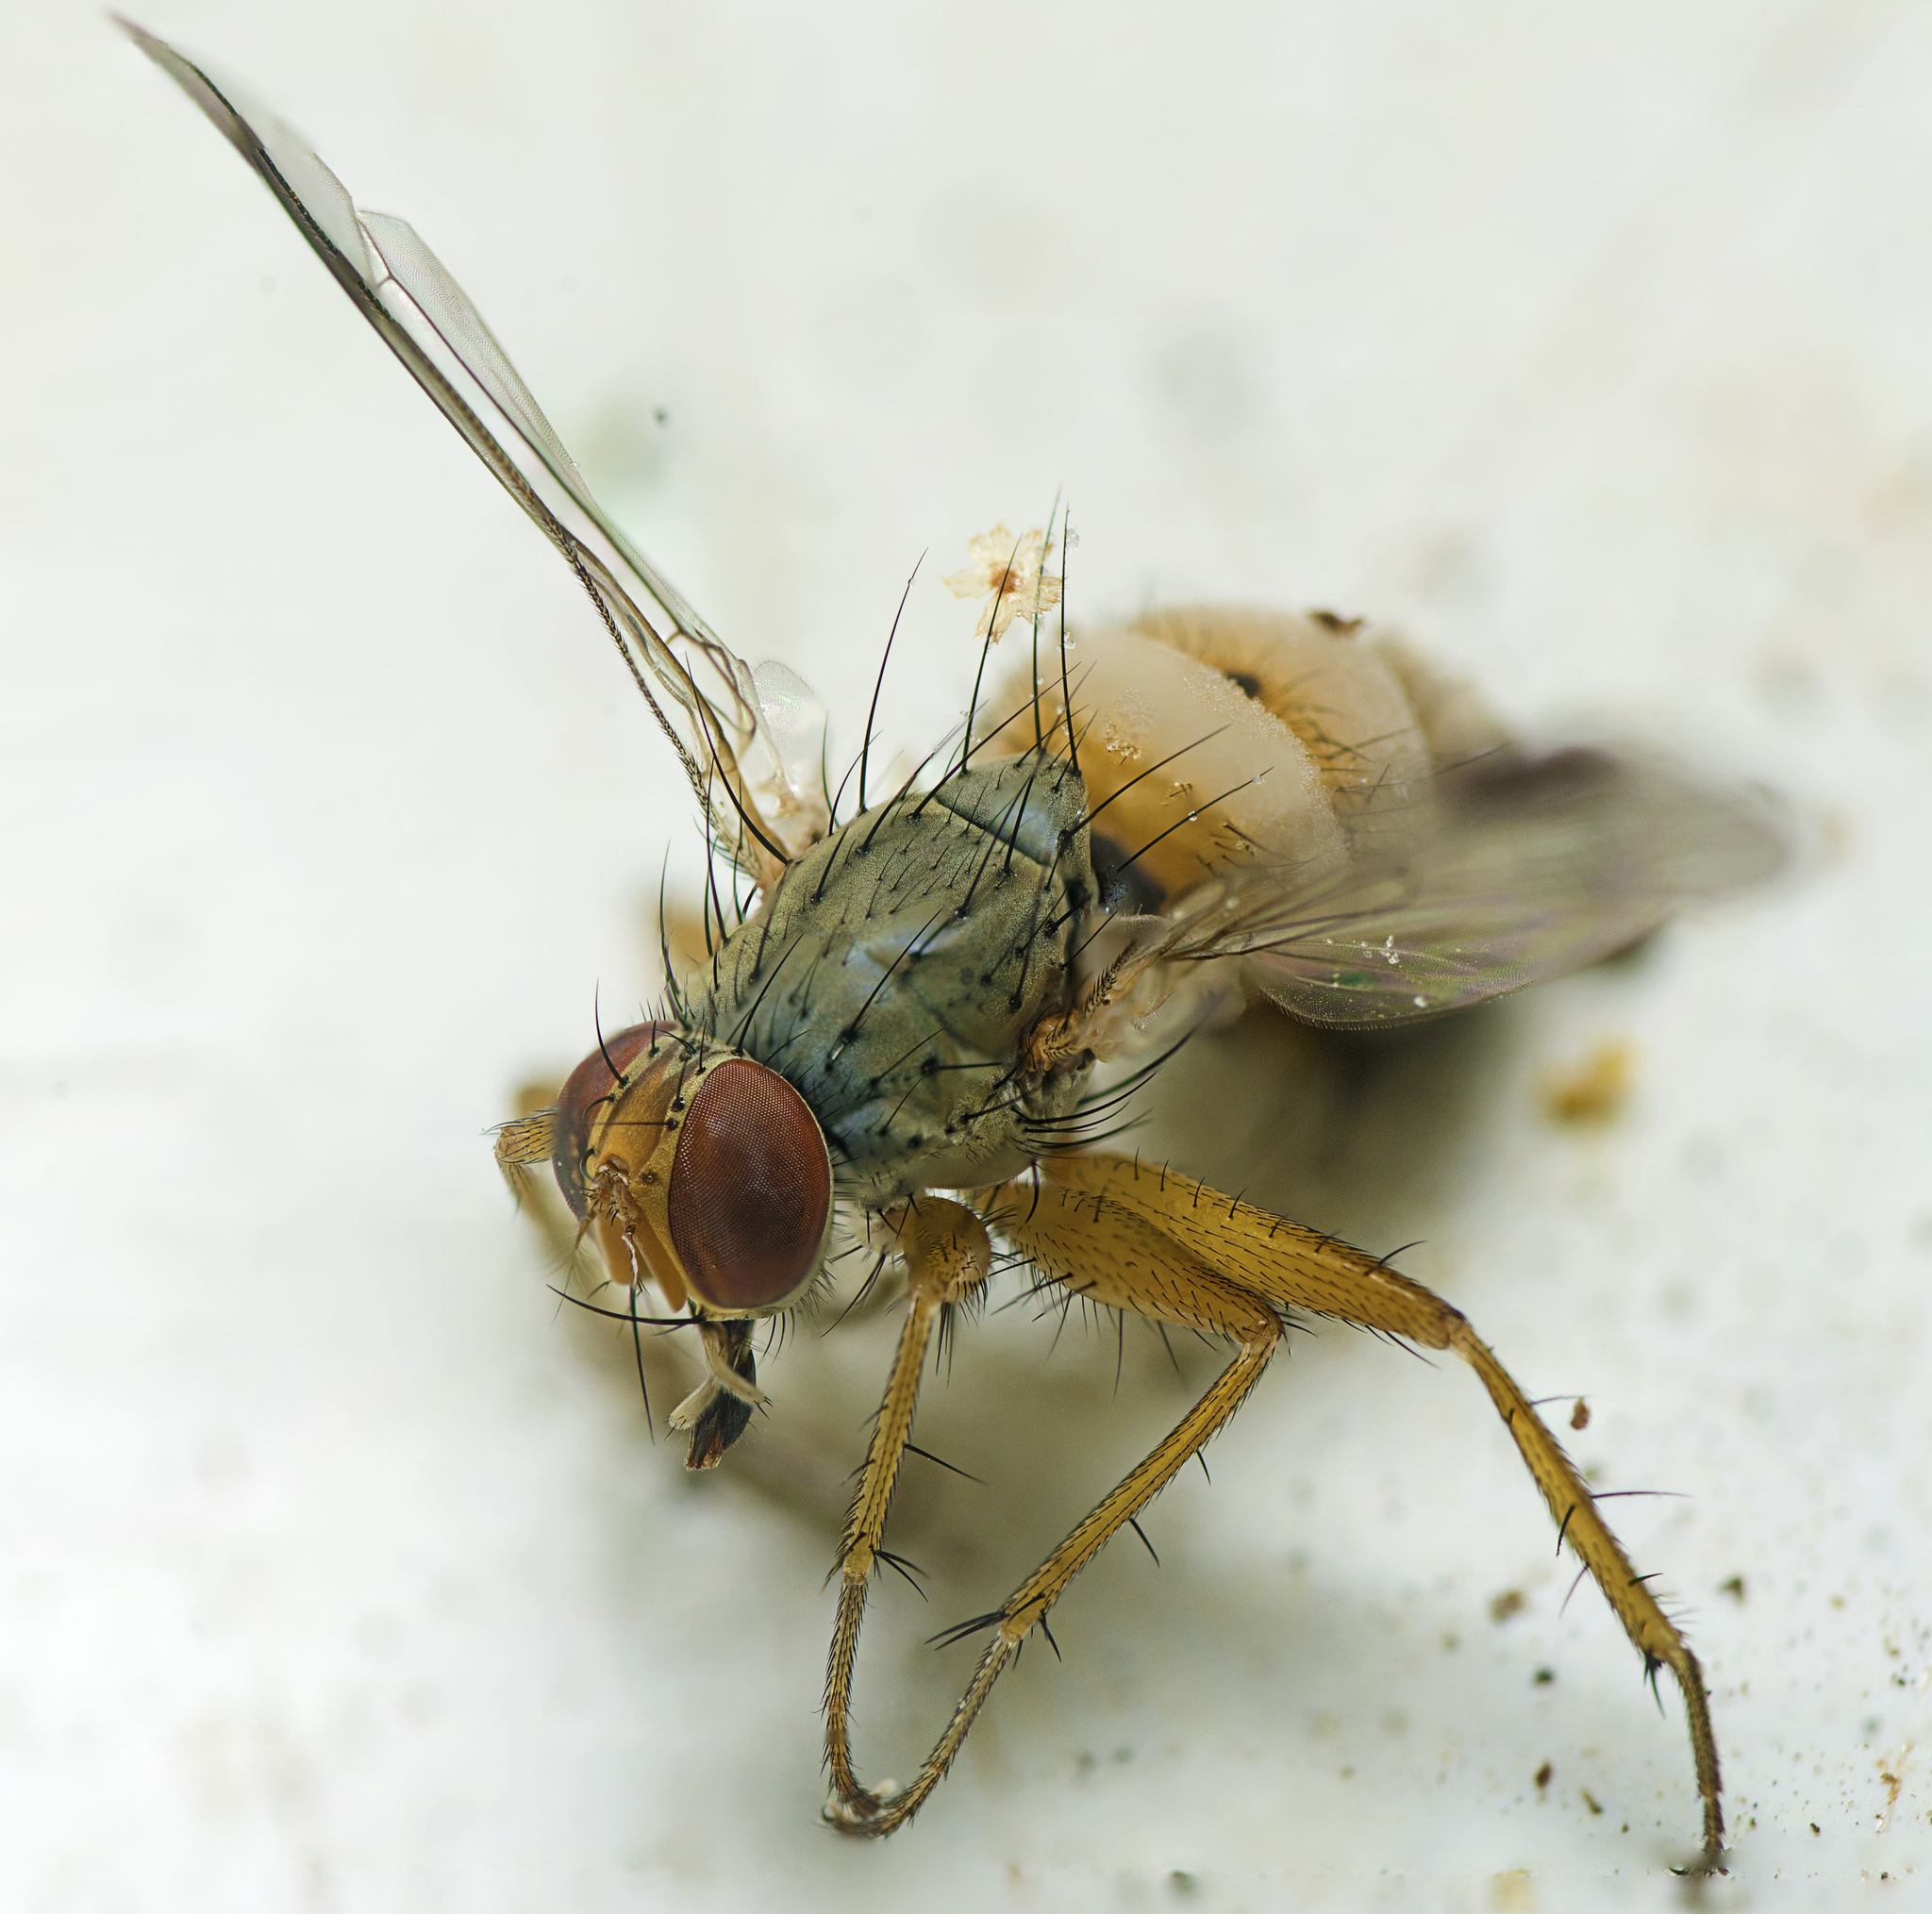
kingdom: Fungi
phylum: Entomophthoromycota
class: Entomophthoromycetes
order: Entomophthorales
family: Entomophthoraceae
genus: Entomophthora
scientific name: Entomophthora
